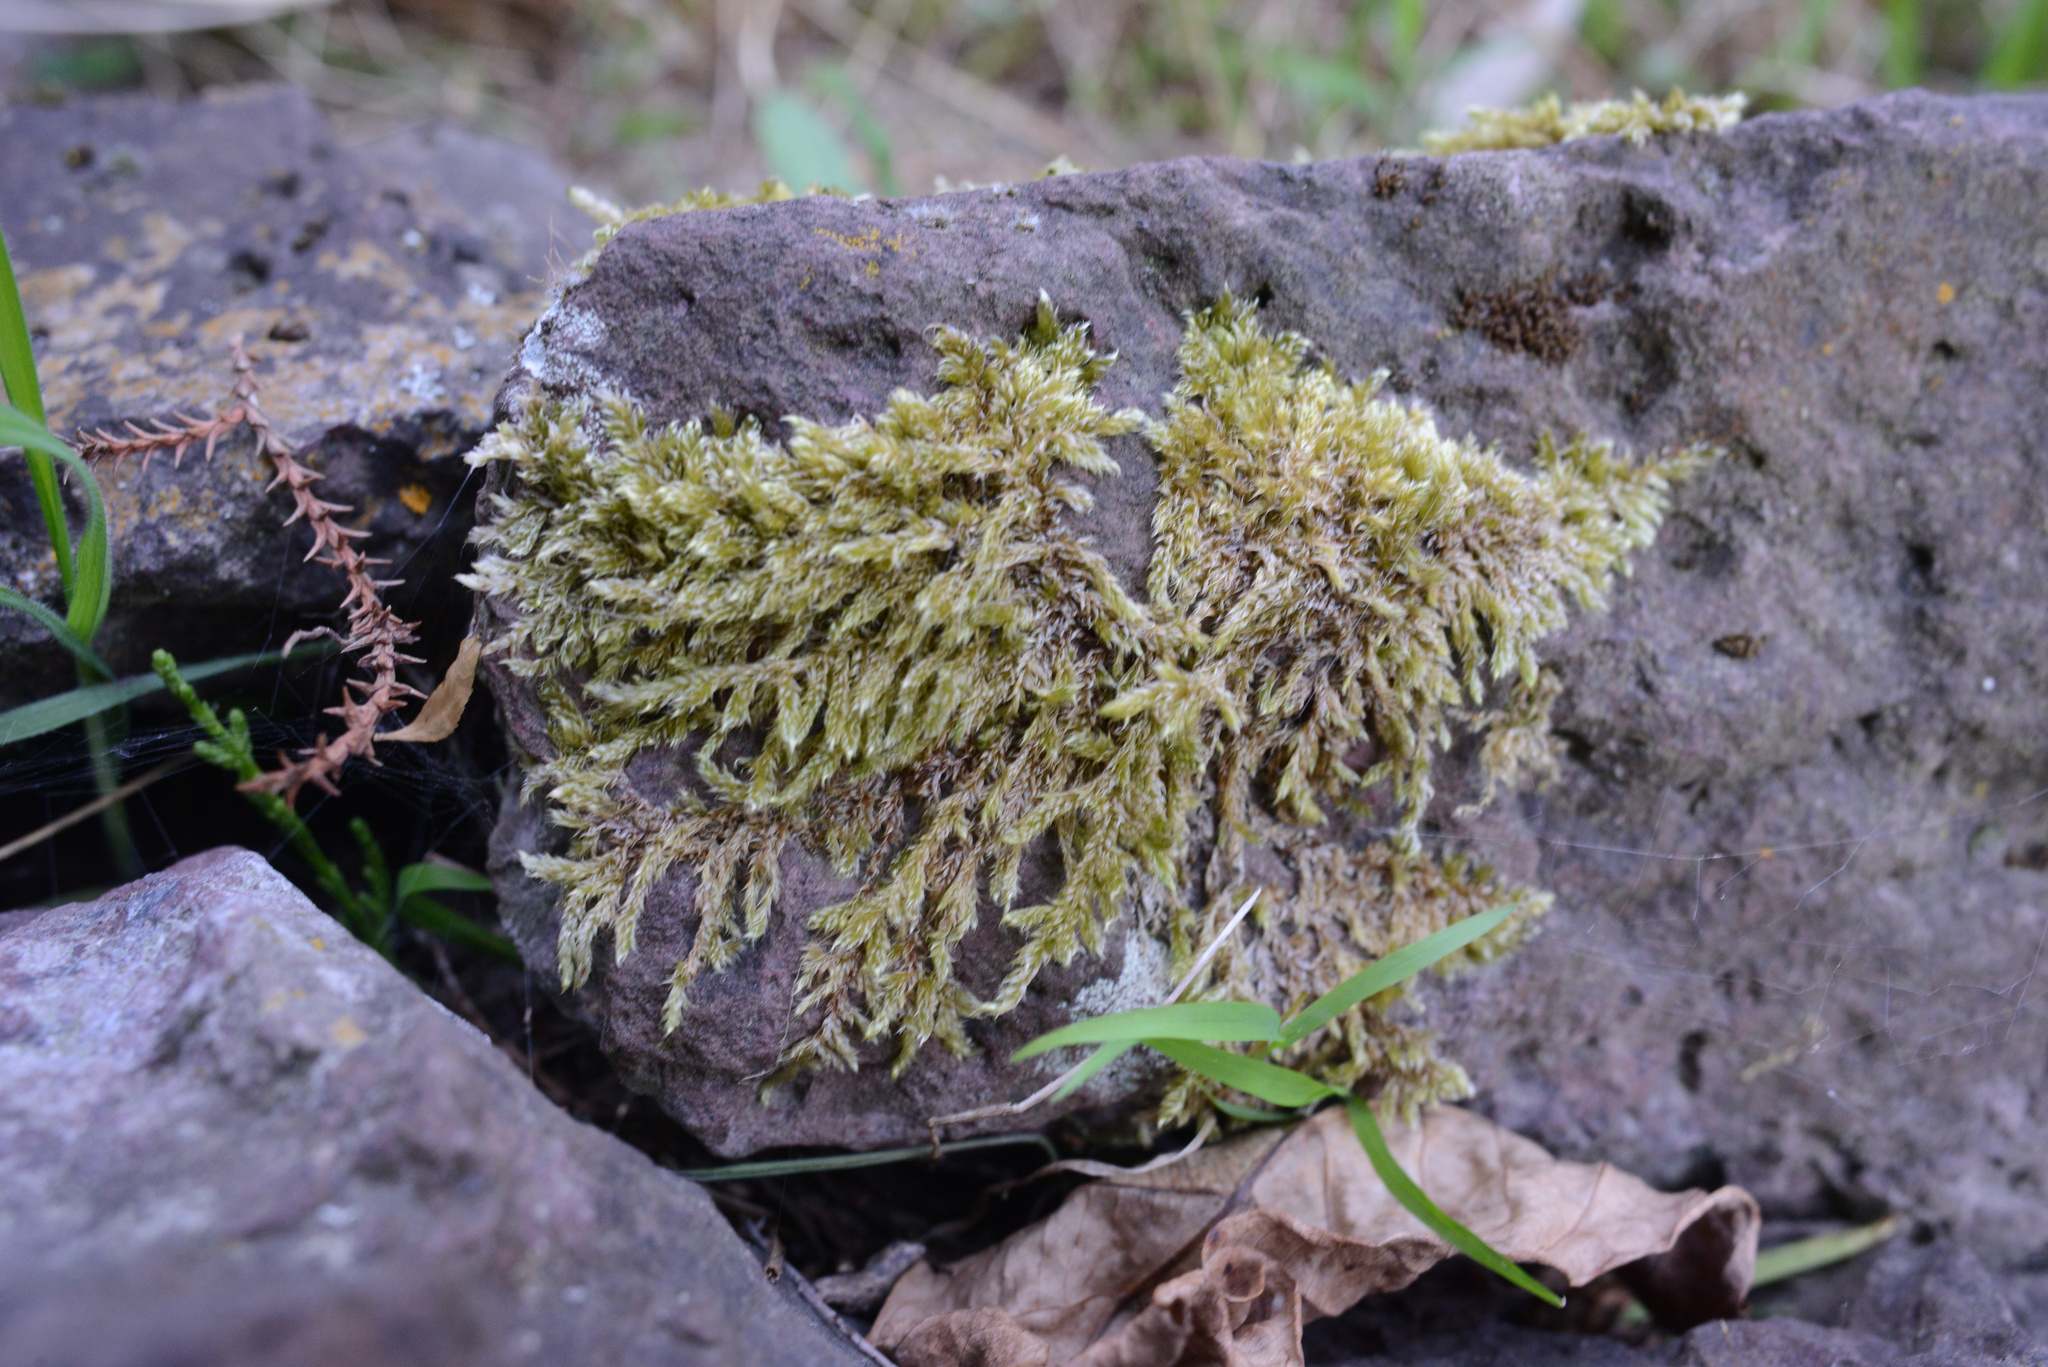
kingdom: Plantae
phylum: Bryophyta
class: Bryopsida
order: Hypnales
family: Hypnaceae
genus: Hypnum
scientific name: Hypnum cupressiforme
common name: Cypress-leaved plait-moss
